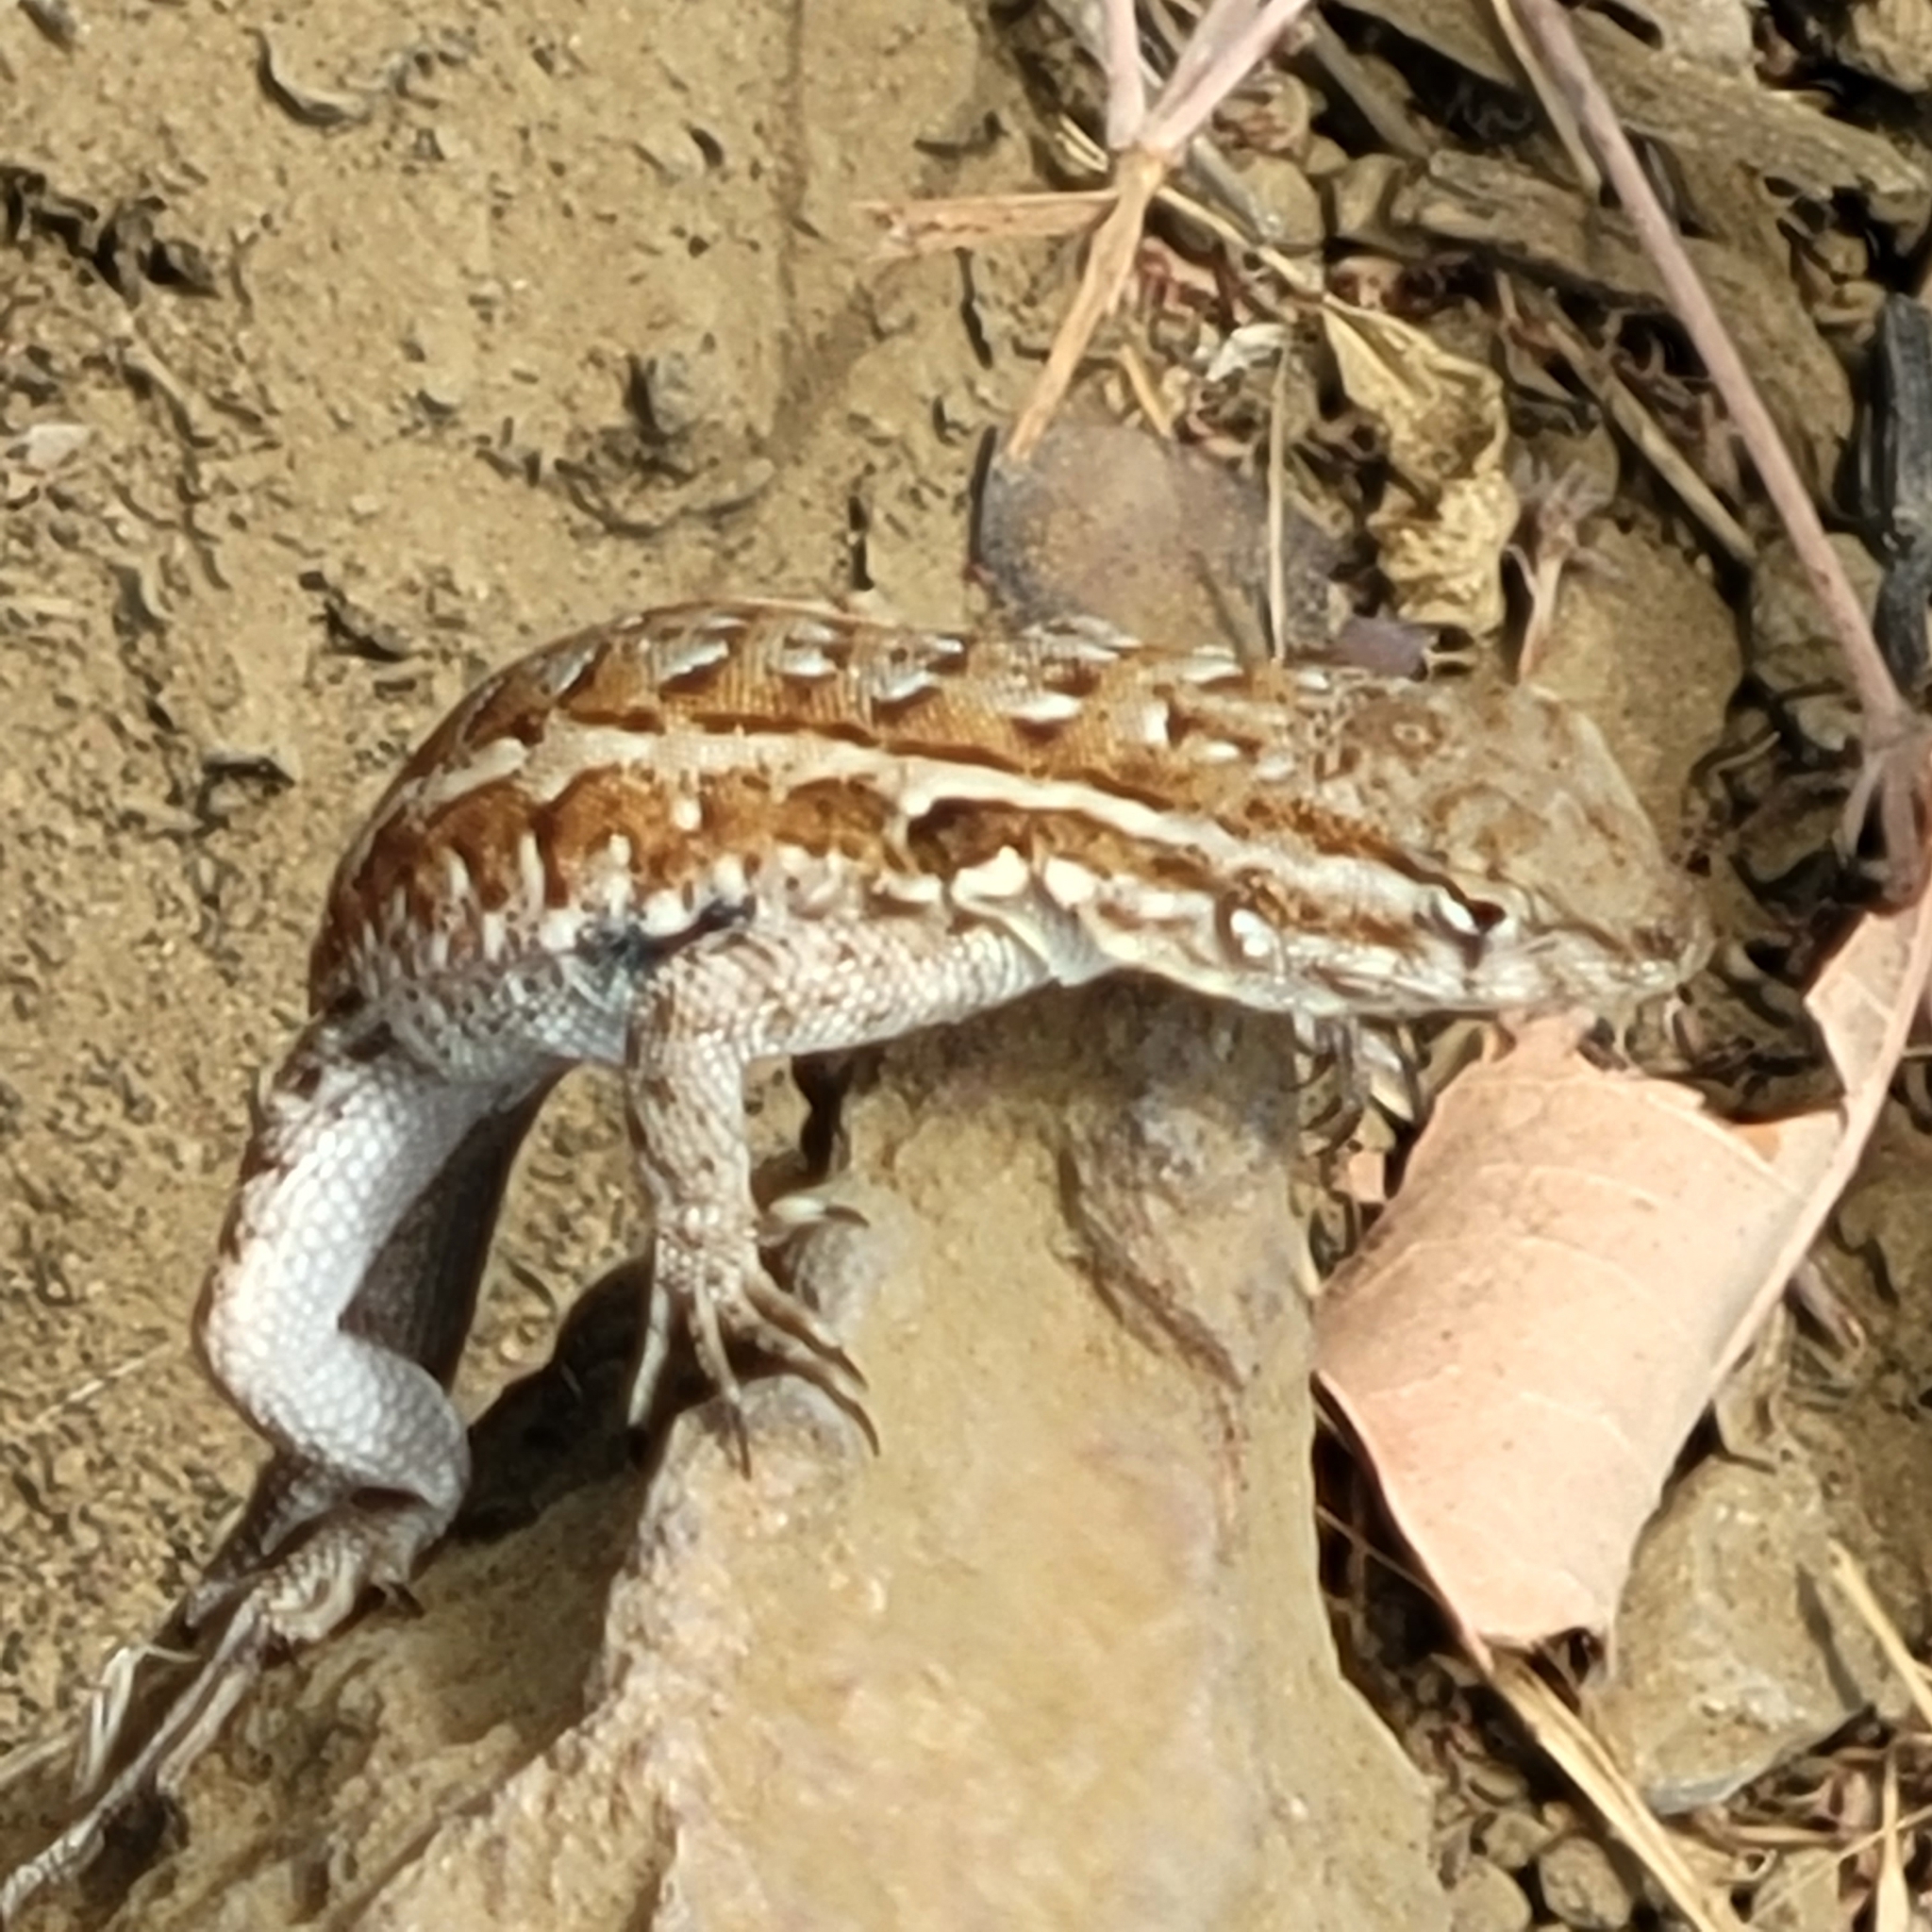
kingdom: Animalia
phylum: Chordata
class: Squamata
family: Phrynosomatidae
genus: Uta
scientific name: Uta stansburiana
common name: Side-blotched lizard
